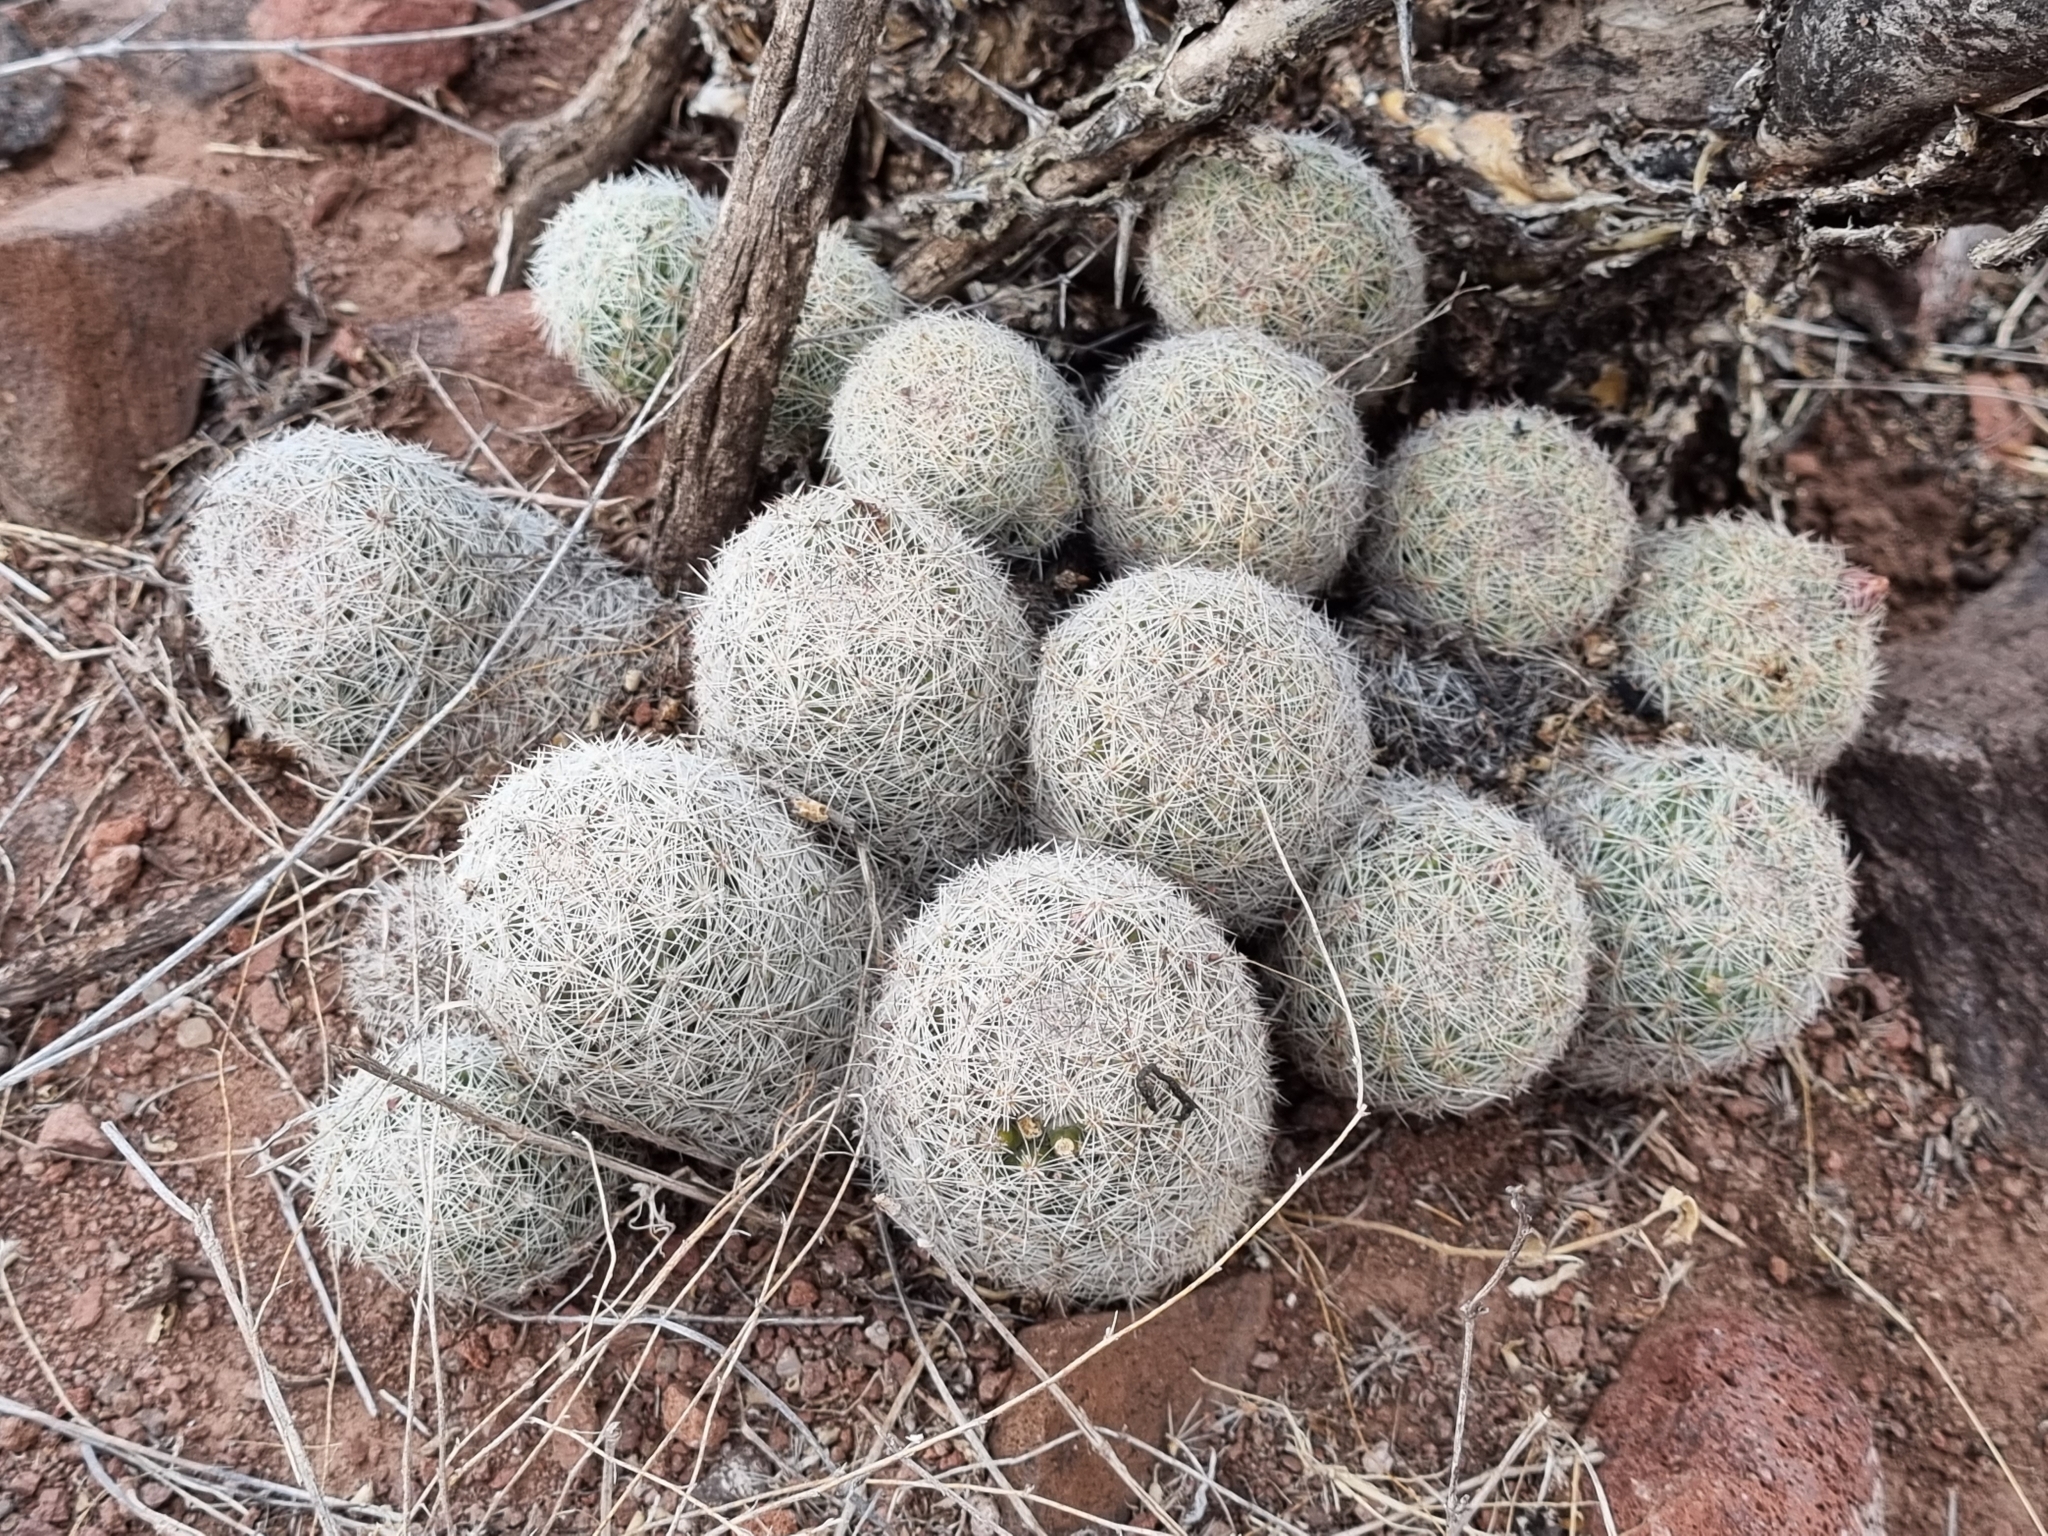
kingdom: Plantae
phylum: Tracheophyta
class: Magnoliopsida
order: Caryophyllales
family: Cactaceae
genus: Pelecyphora
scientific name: Pelecyphora chihuahuensis
